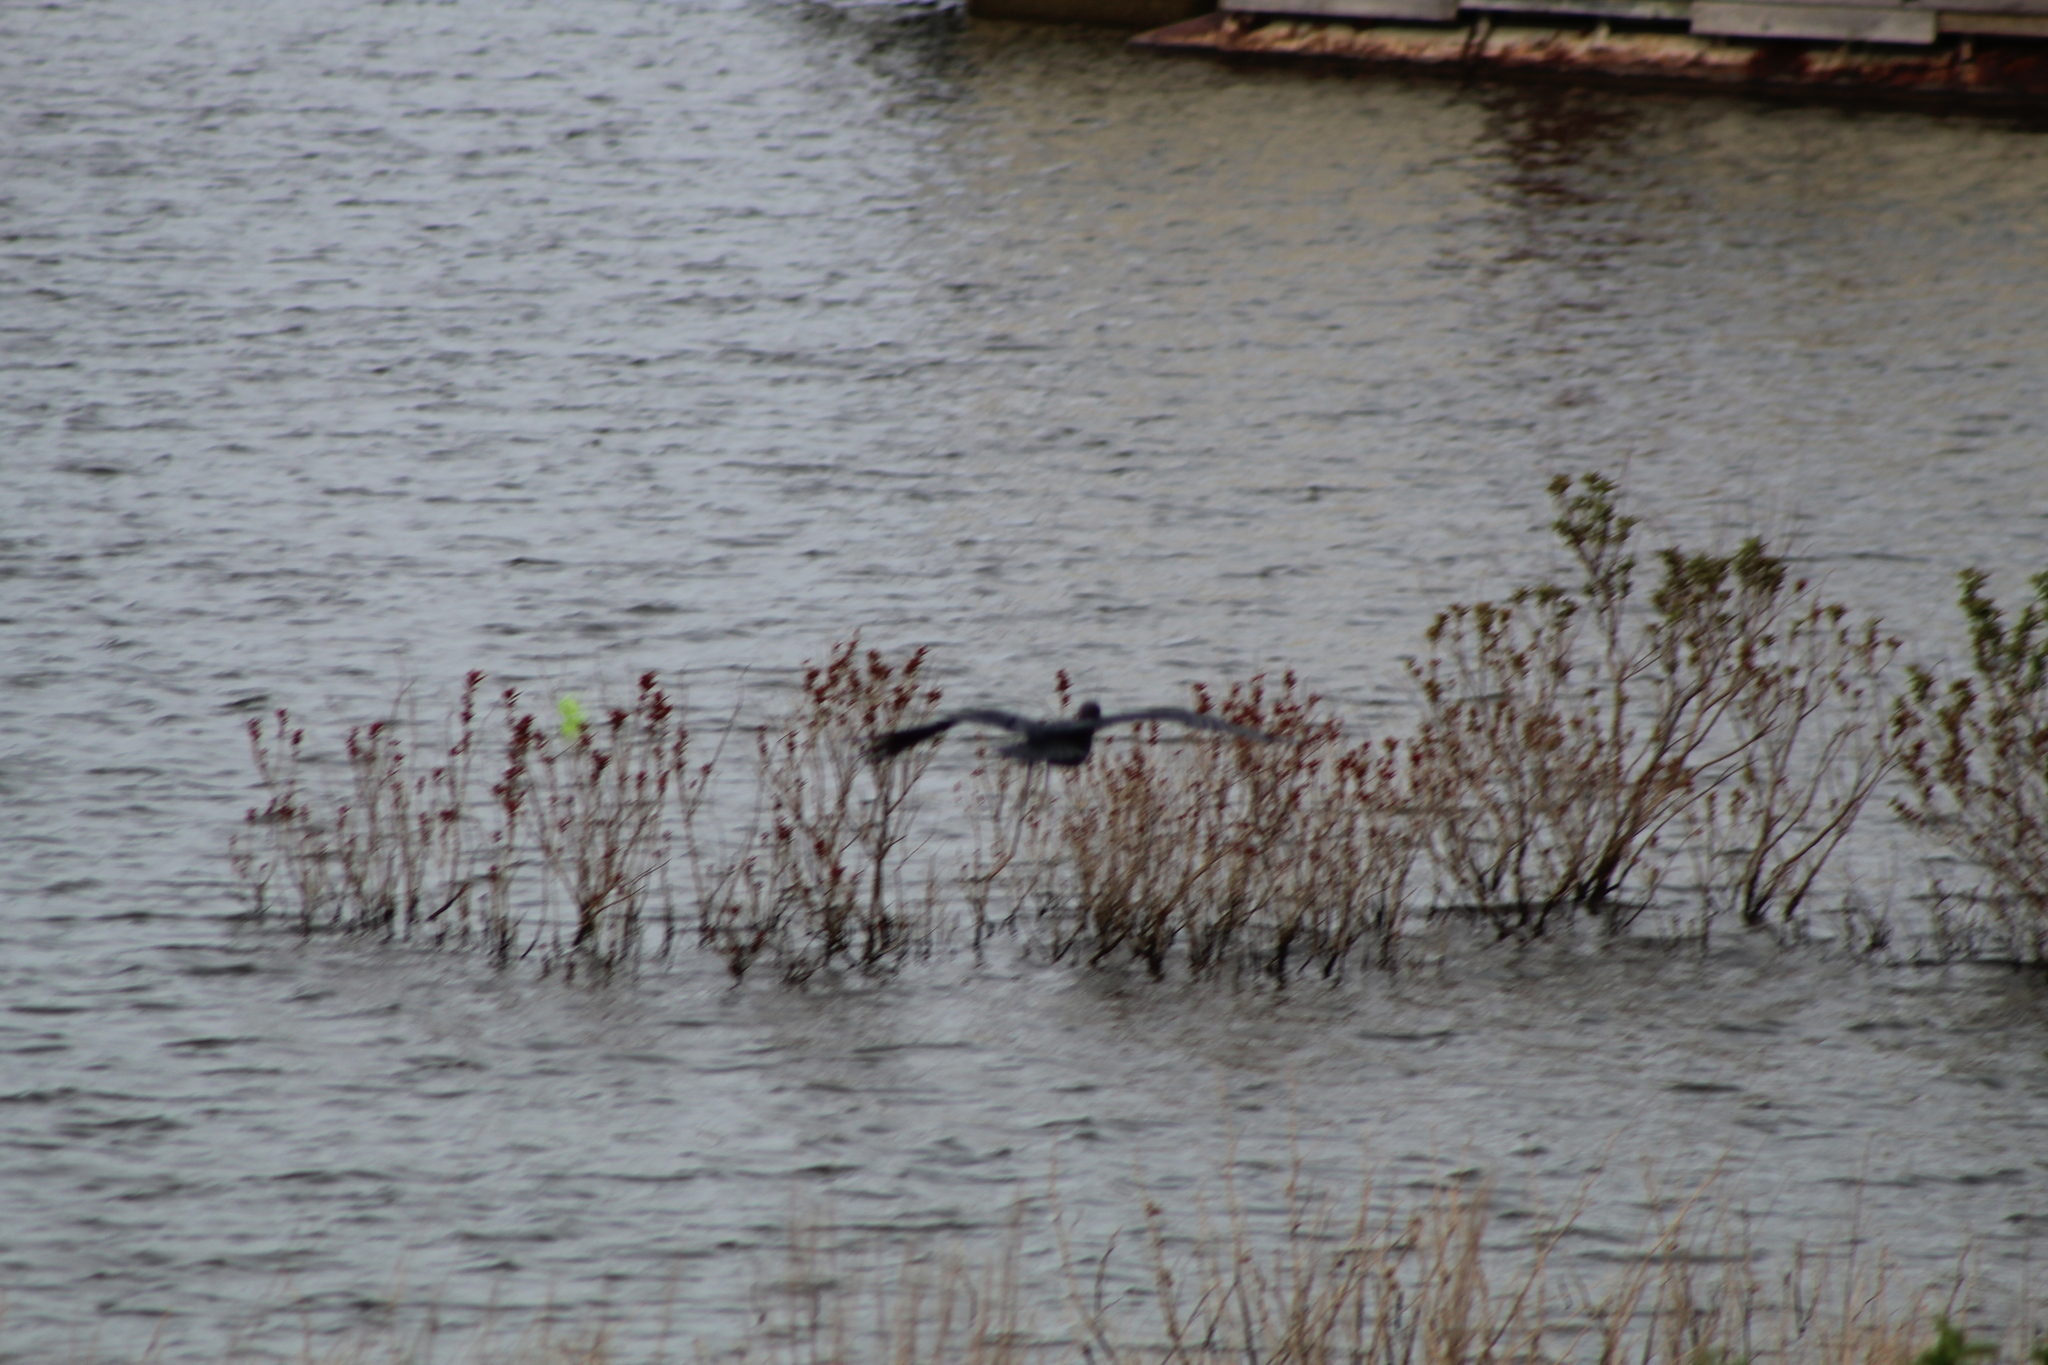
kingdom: Animalia
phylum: Chordata
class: Aves
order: Pelecaniformes
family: Ardeidae
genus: Egretta
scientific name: Egretta caerulea
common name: Little blue heron
